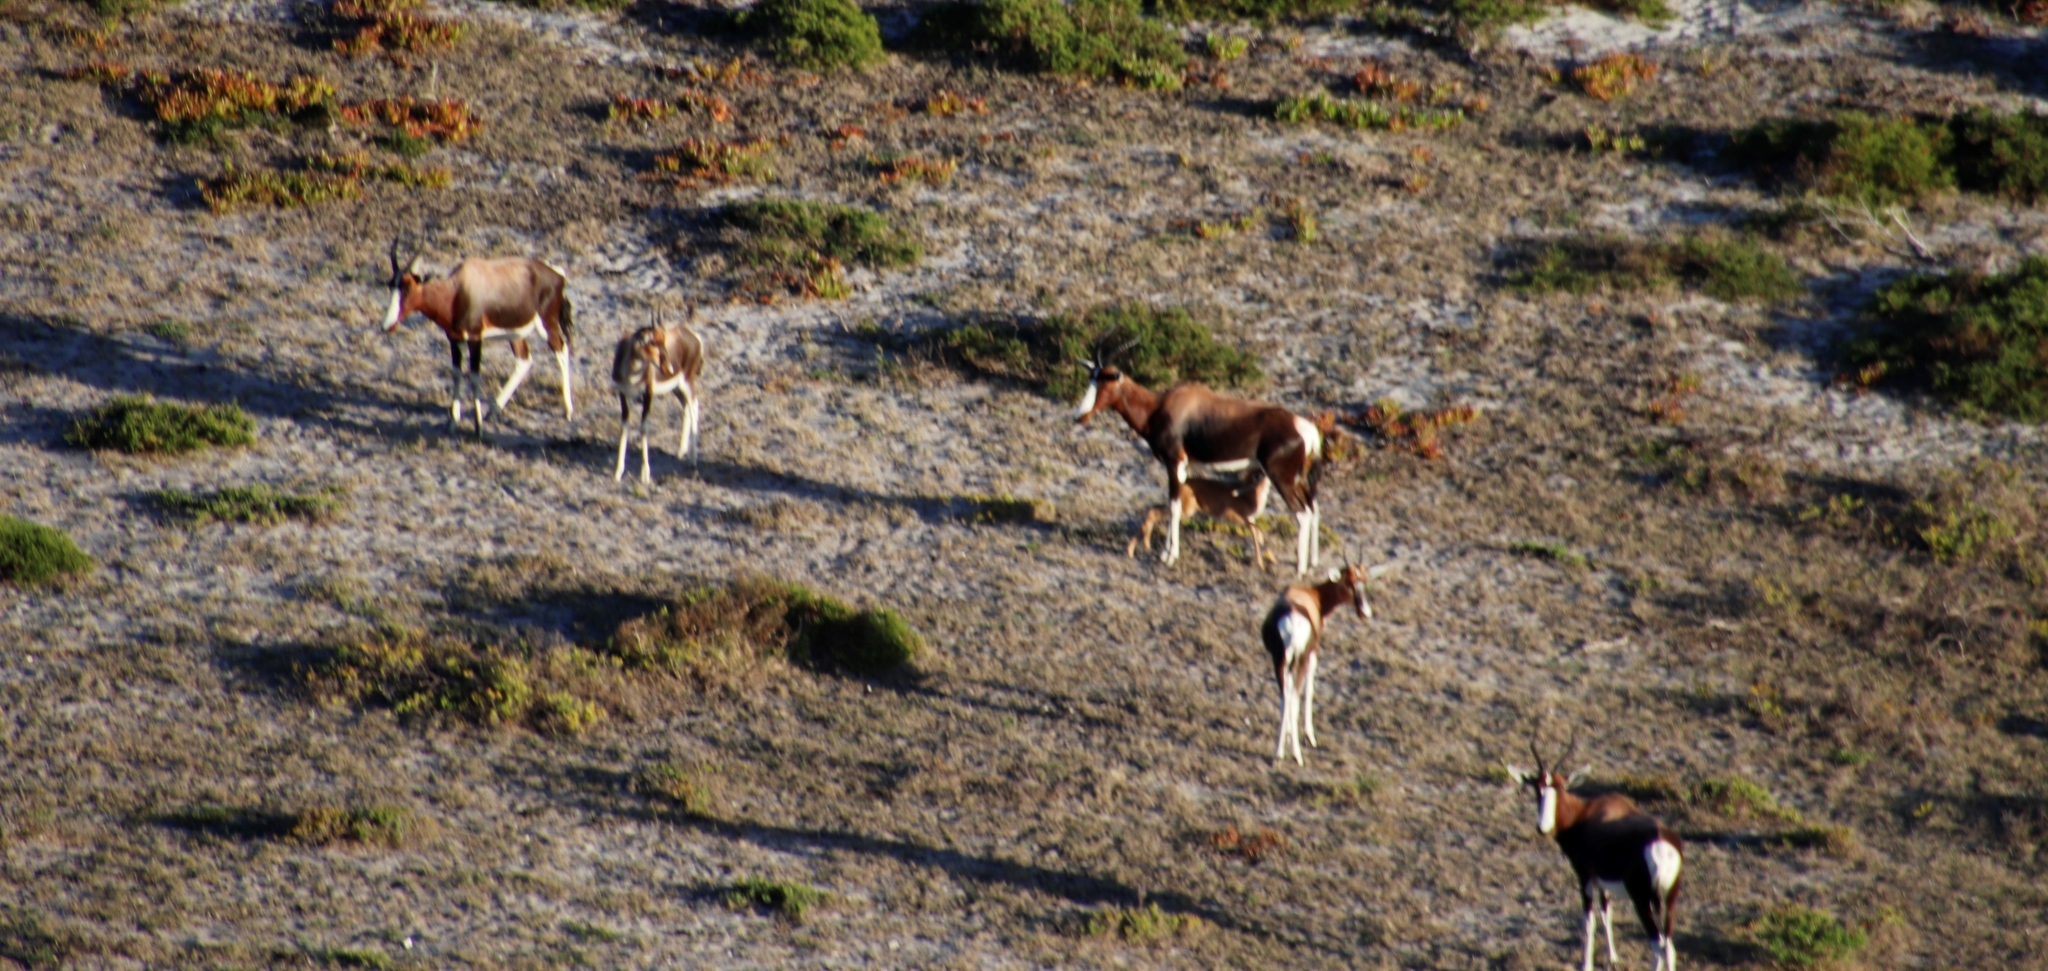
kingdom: Animalia
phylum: Chordata
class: Mammalia
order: Artiodactyla
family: Bovidae
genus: Damaliscus
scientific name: Damaliscus pygargus
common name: Bontebok
